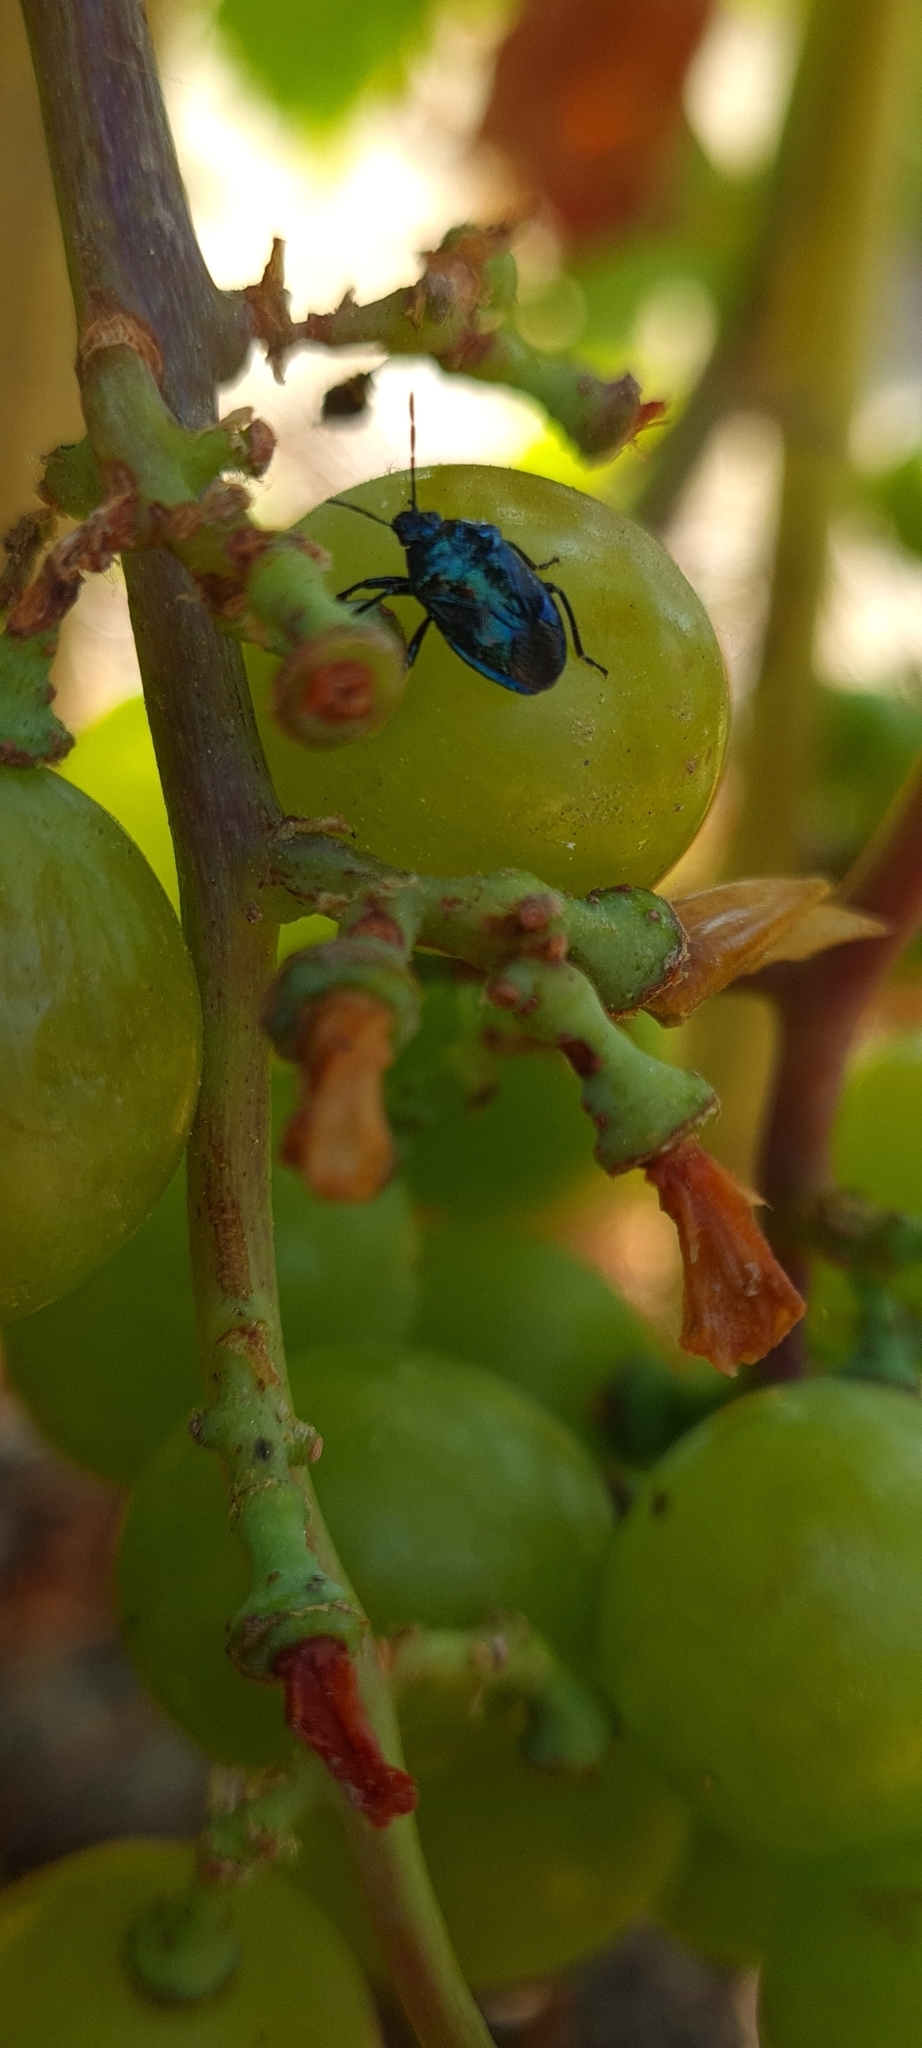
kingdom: Animalia
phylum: Arthropoda
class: Insecta
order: Hemiptera
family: Pentatomidae
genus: Zicrona
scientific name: Zicrona caerulea
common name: Blue shieldbug
